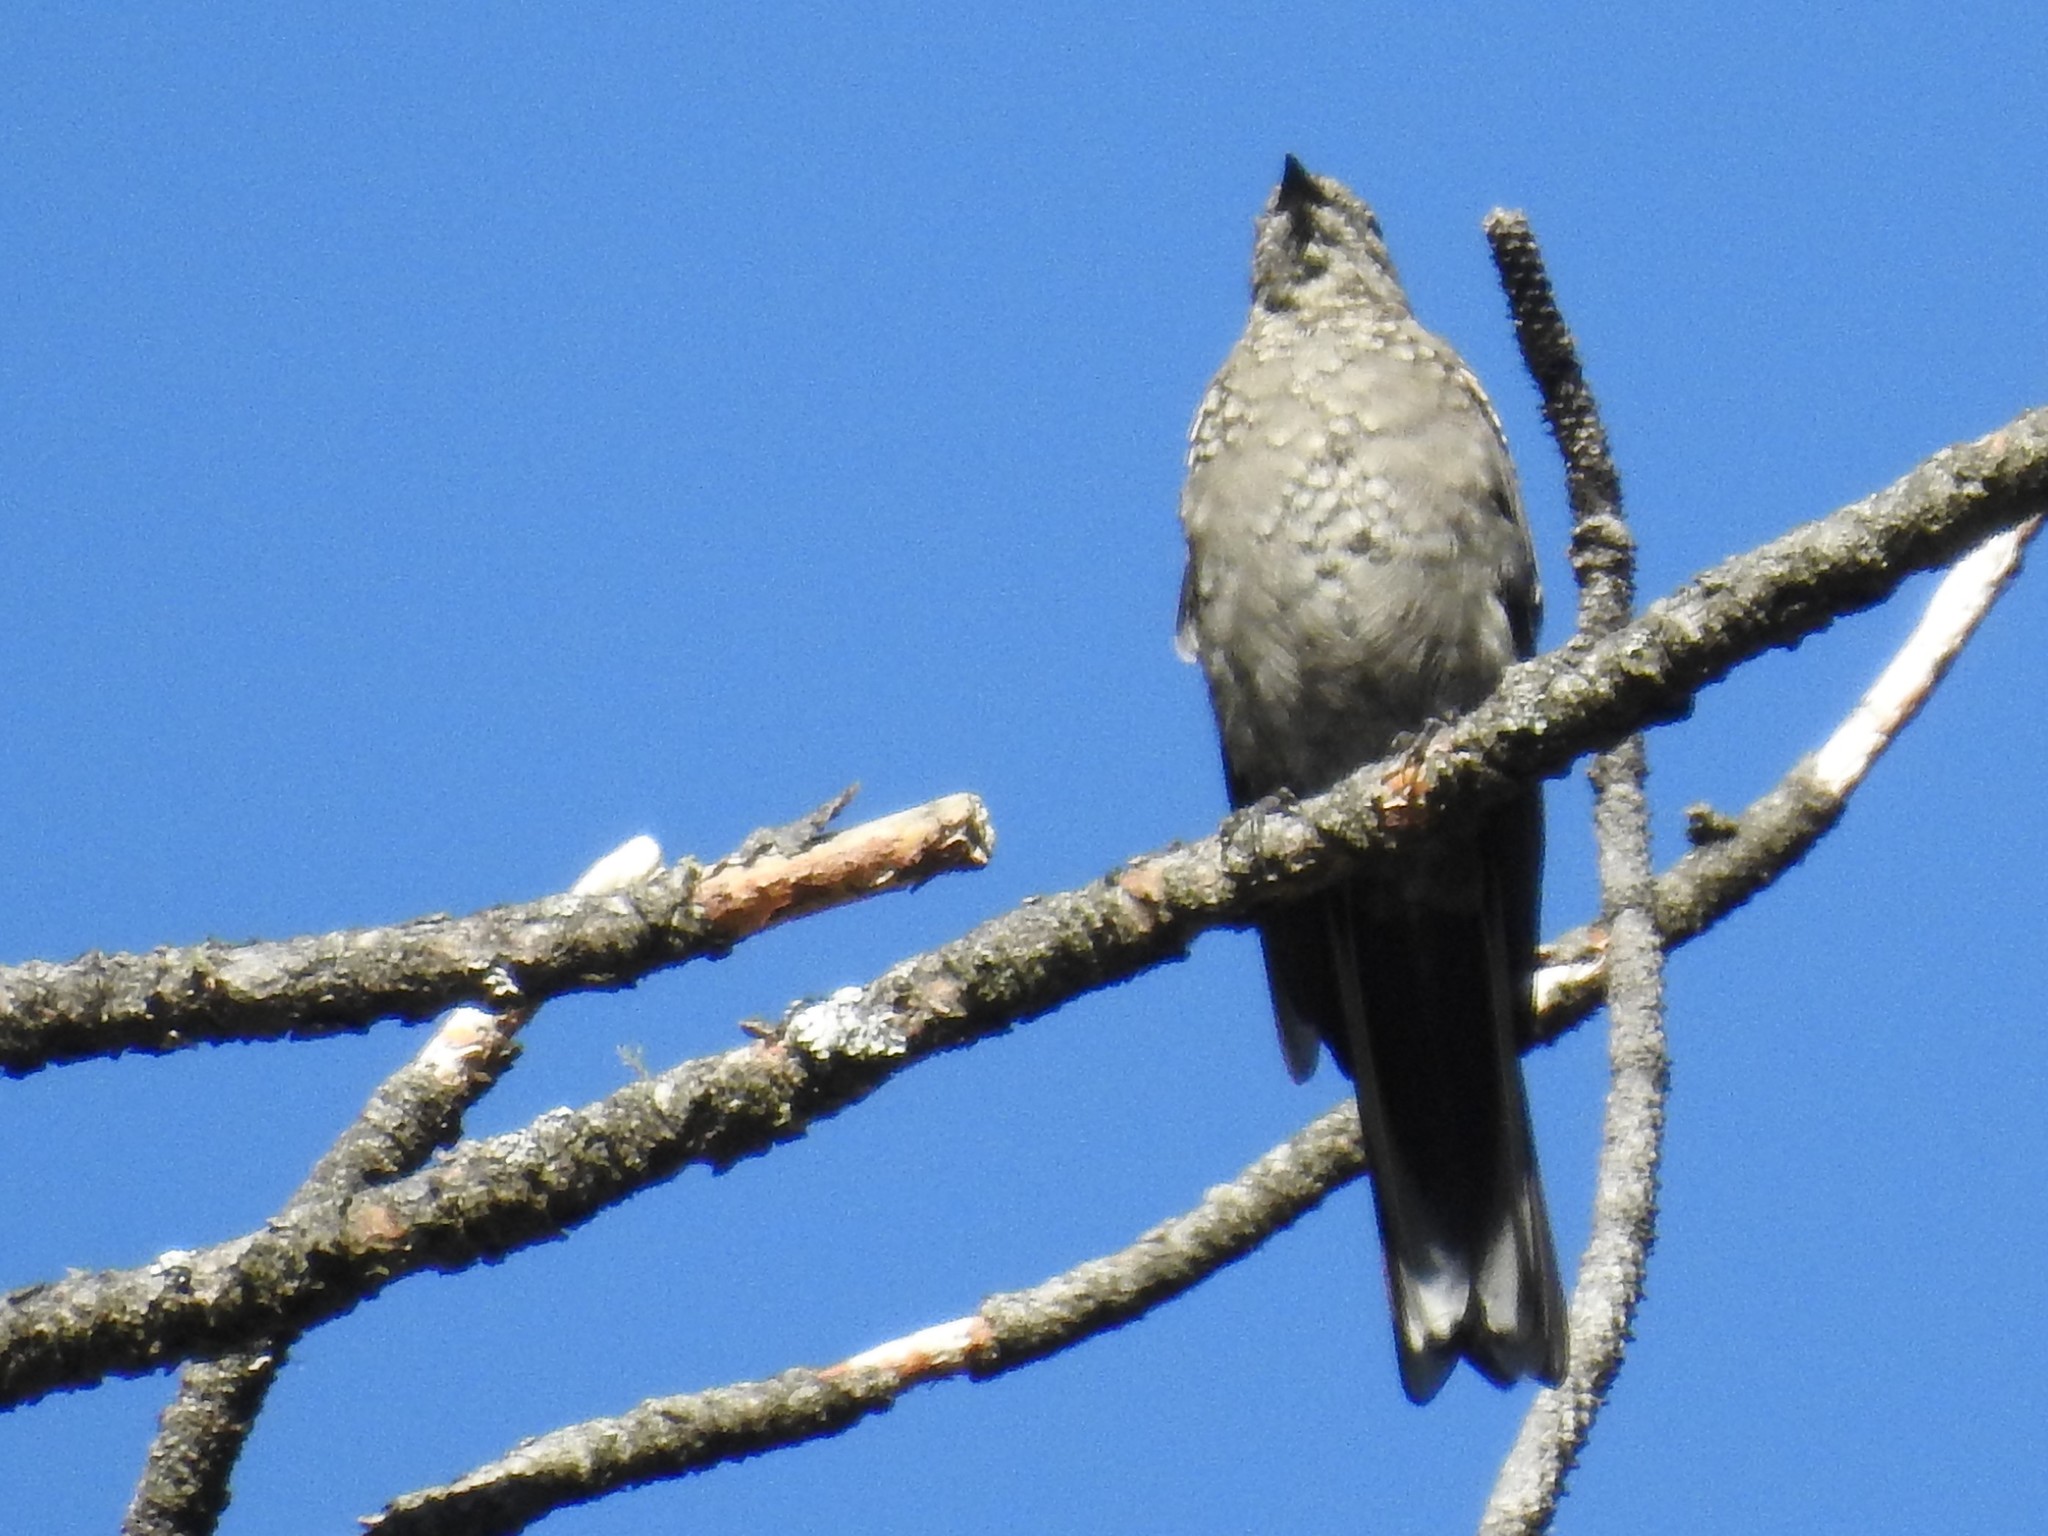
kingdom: Animalia
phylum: Chordata
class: Aves
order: Passeriformes
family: Turdidae
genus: Myadestes
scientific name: Myadestes townsendi
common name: Townsend's solitaire
